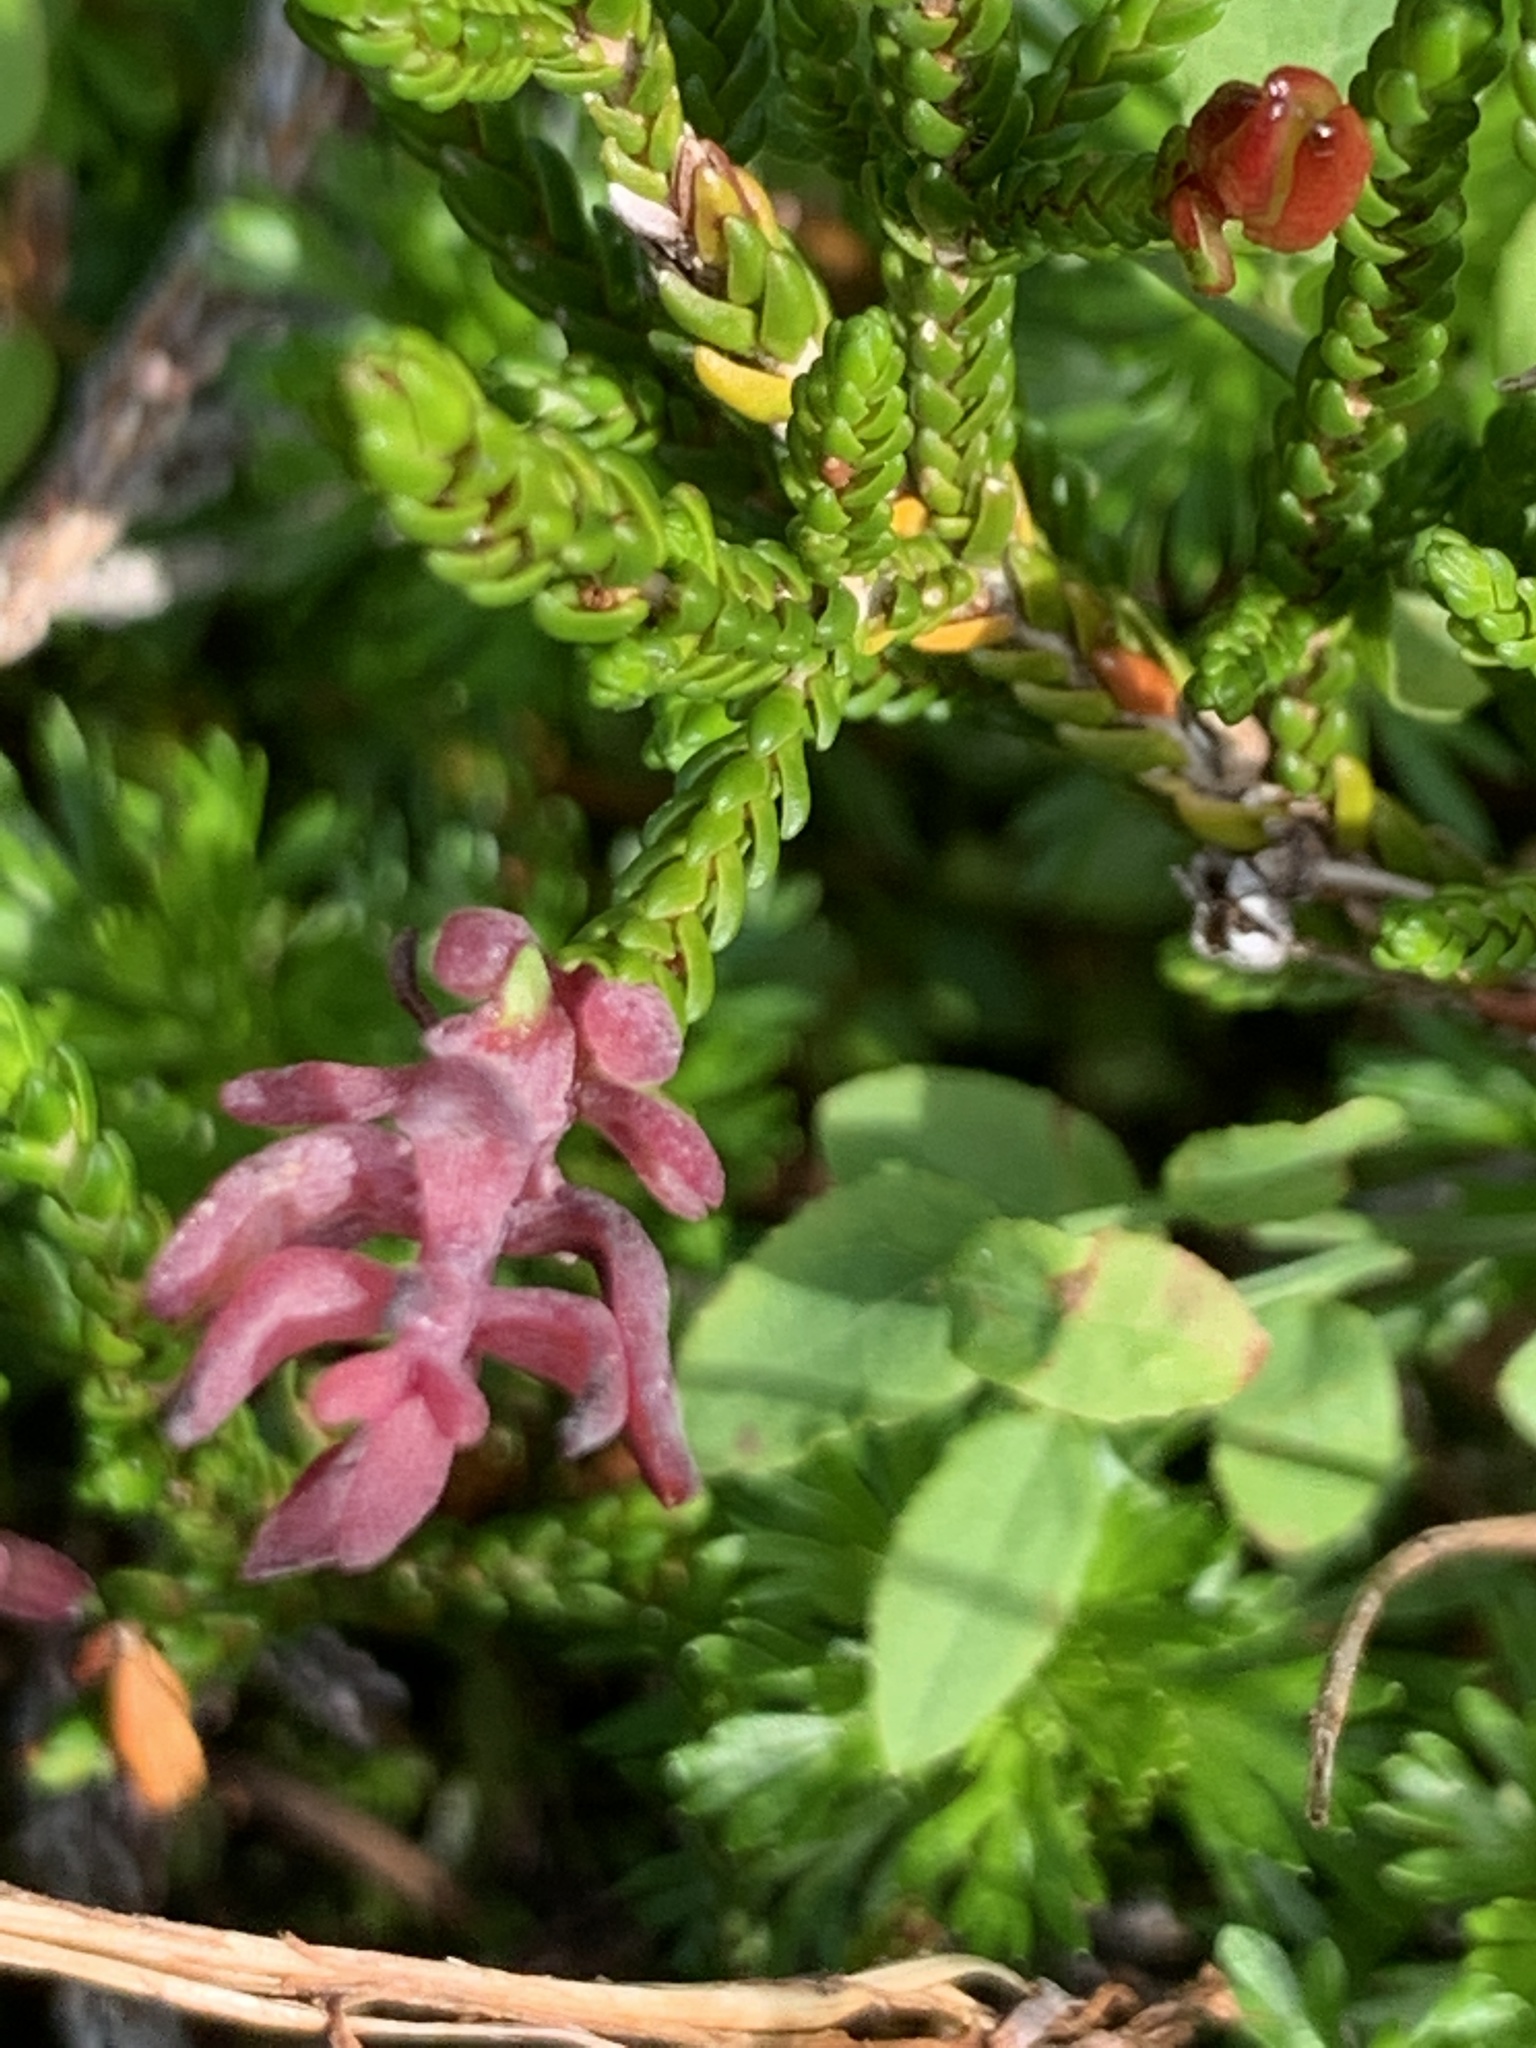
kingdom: Plantae
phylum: Tracheophyta
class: Magnoliopsida
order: Ericales
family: Ericaceae
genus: Cassiope
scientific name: Cassiope mertensiana
